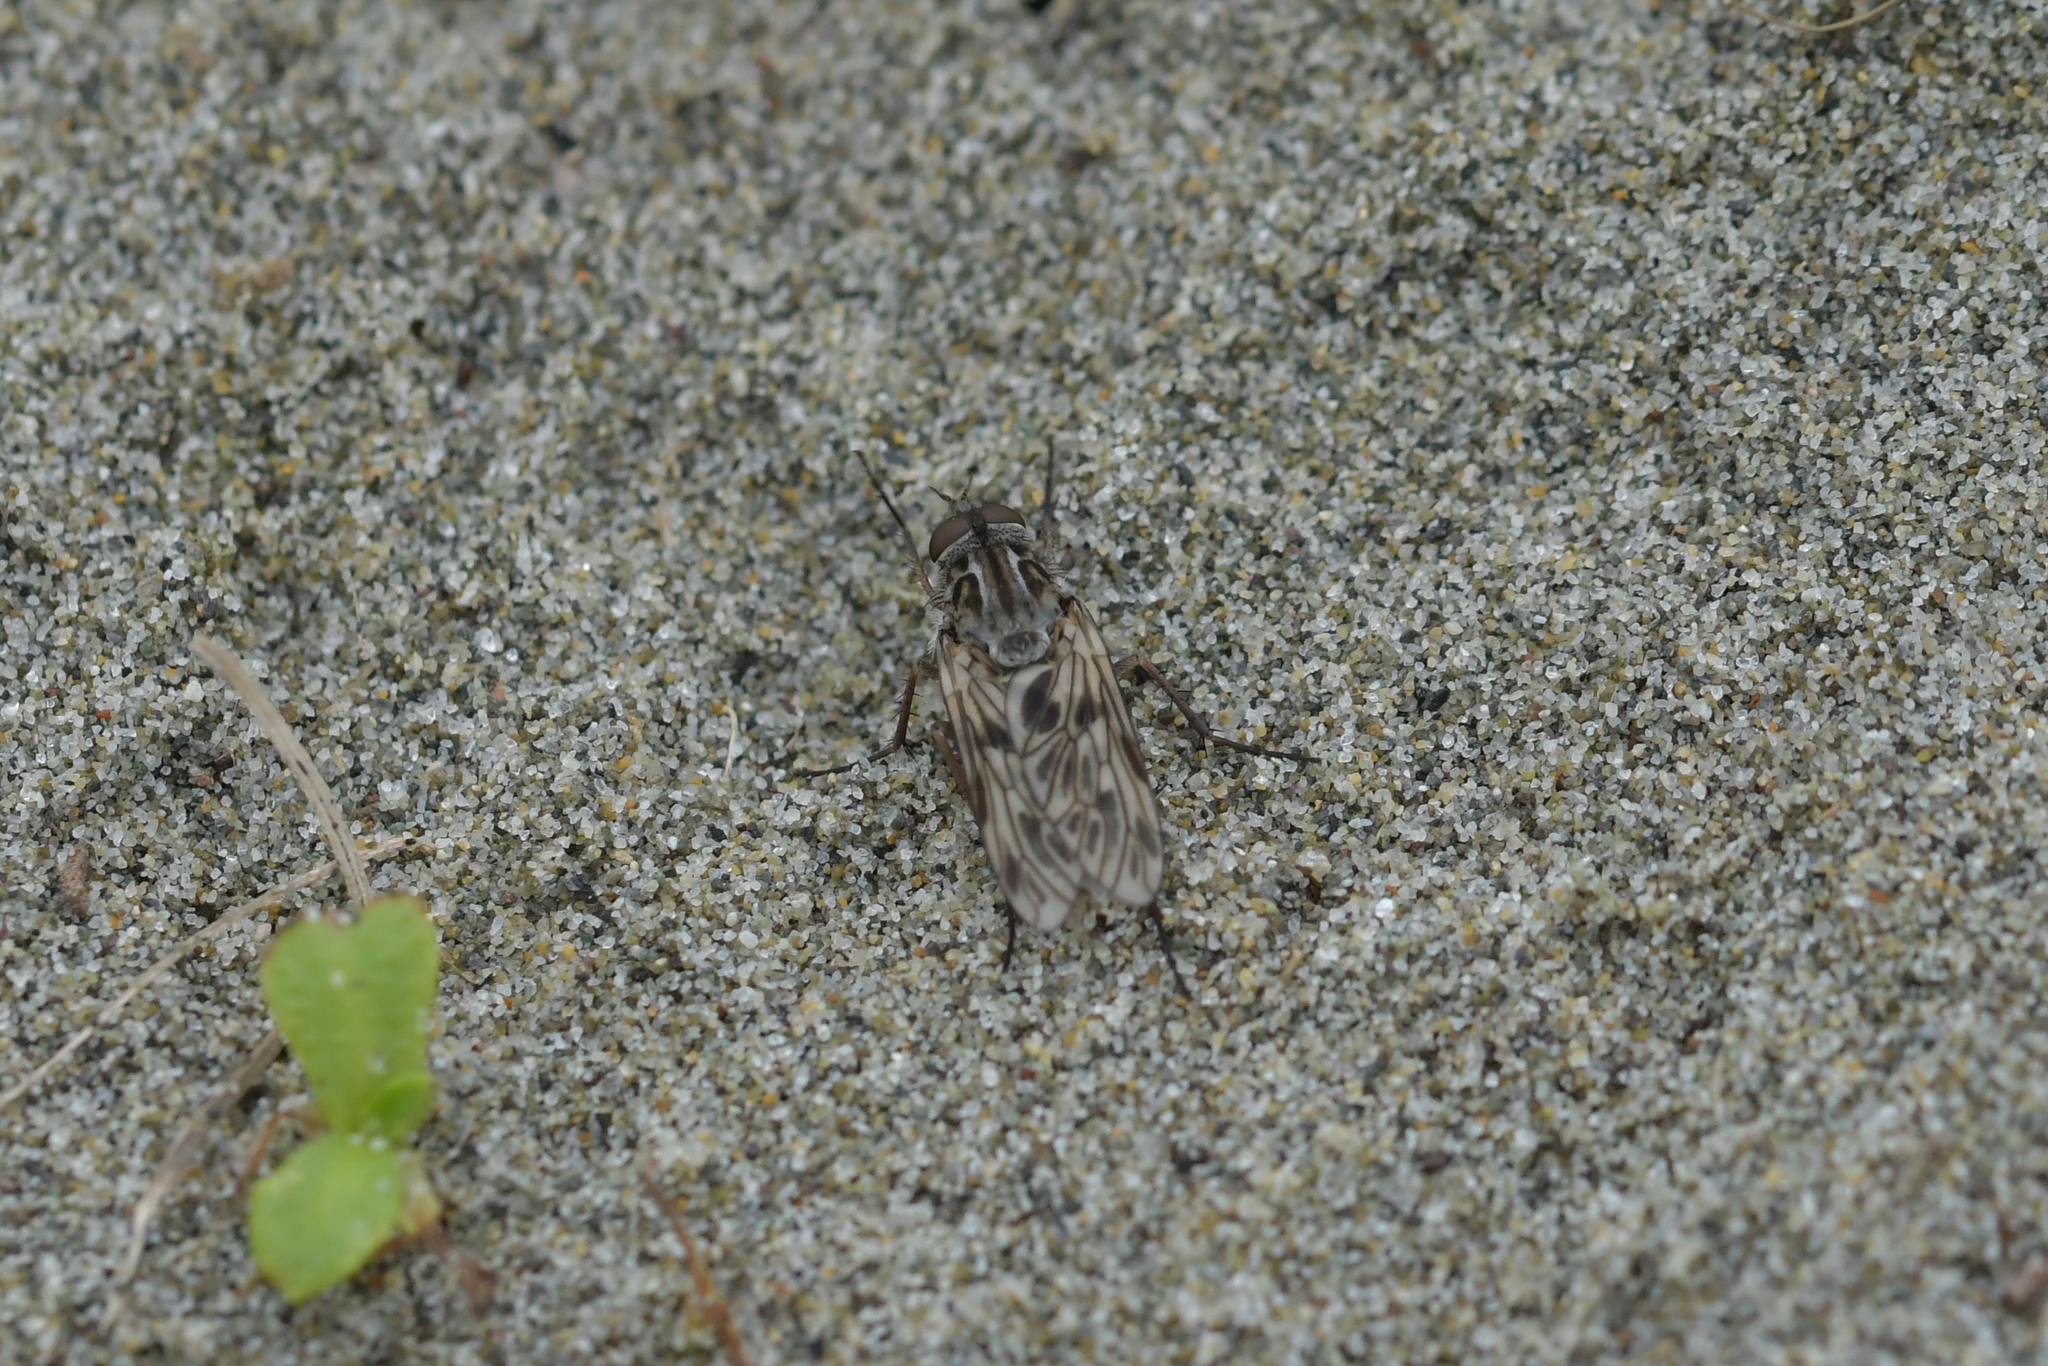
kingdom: Animalia
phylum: Arthropoda
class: Insecta
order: Diptera
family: Therevidae
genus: Anabarhynchus
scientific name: Anabarhynchus nebulosus
